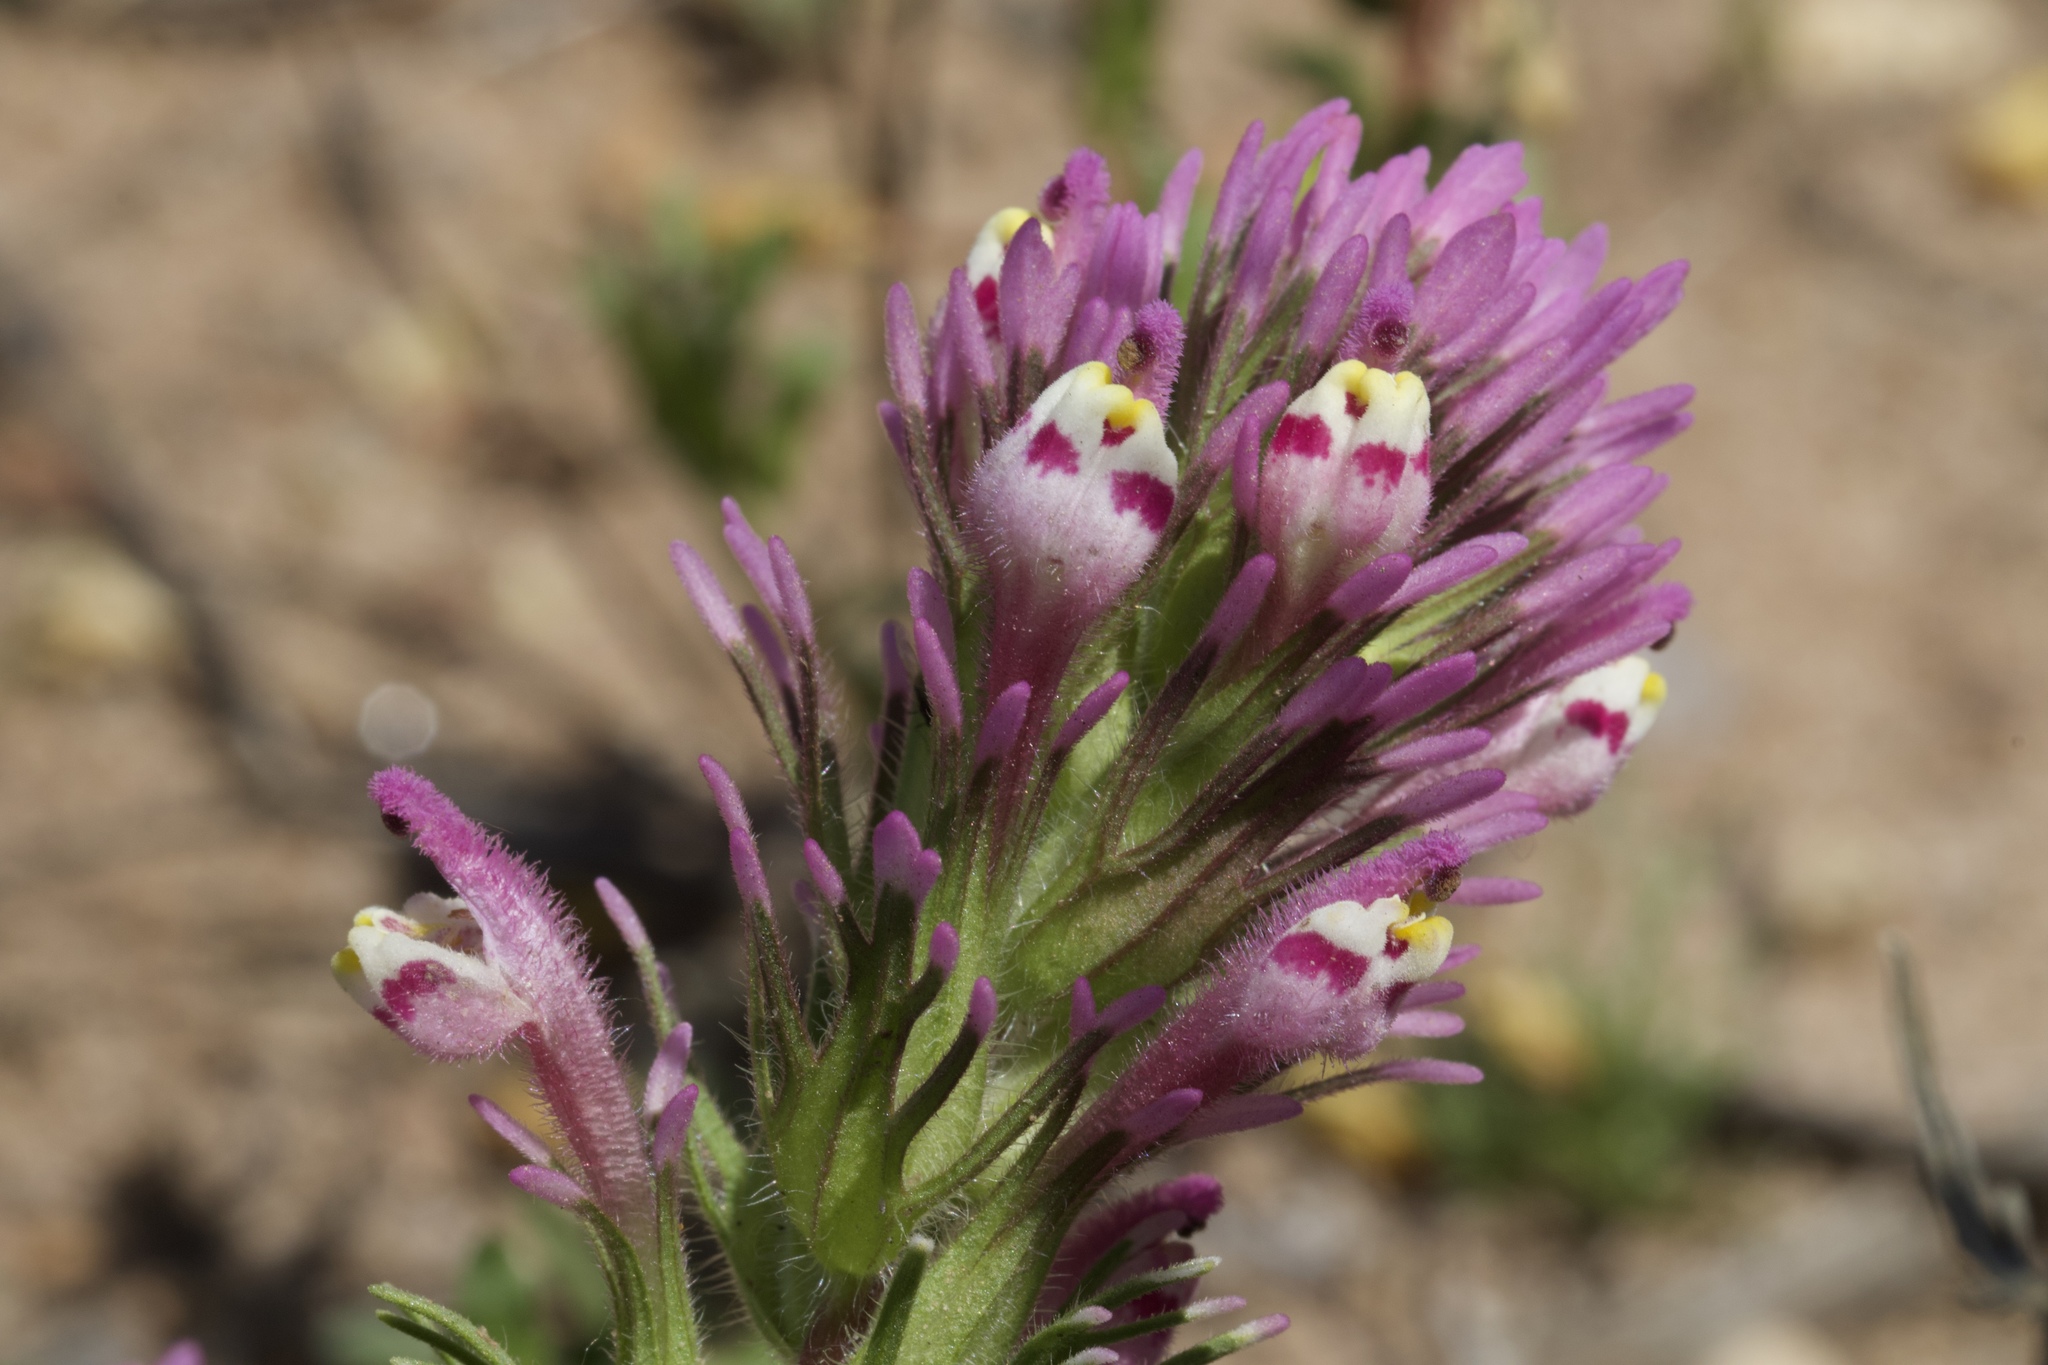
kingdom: Plantae
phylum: Tracheophyta
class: Magnoliopsida
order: Lamiales
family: Orobanchaceae
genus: Castilleja
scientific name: Castilleja exserta
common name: Purple owl-clover
